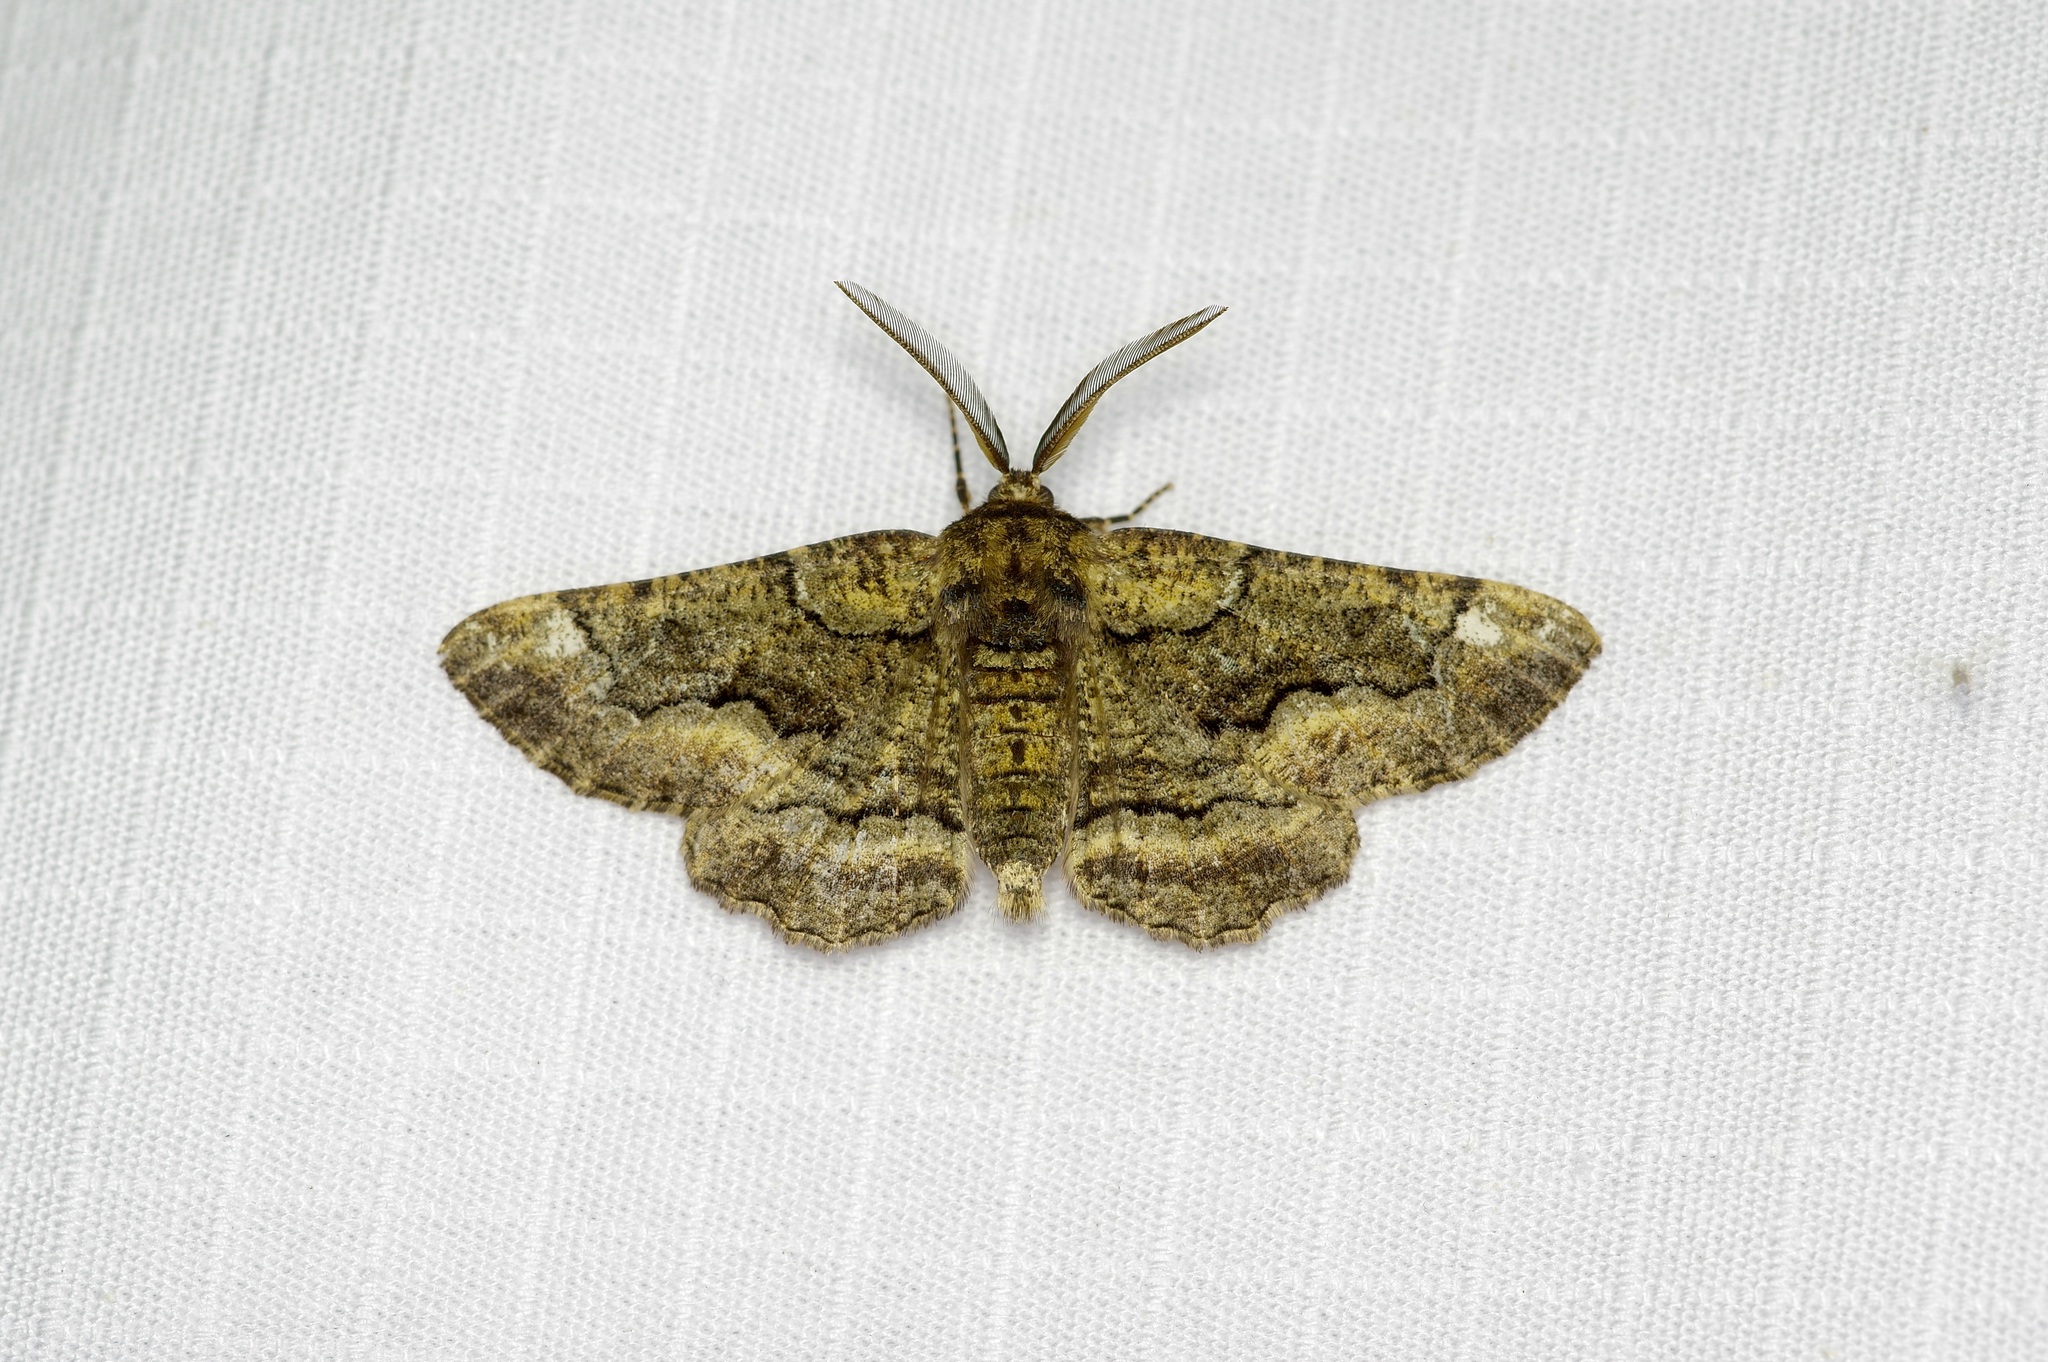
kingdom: Animalia
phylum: Arthropoda
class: Insecta
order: Lepidoptera
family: Geometridae
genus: Phaeoura
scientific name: Phaeoura quernaria
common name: Oak beauty
